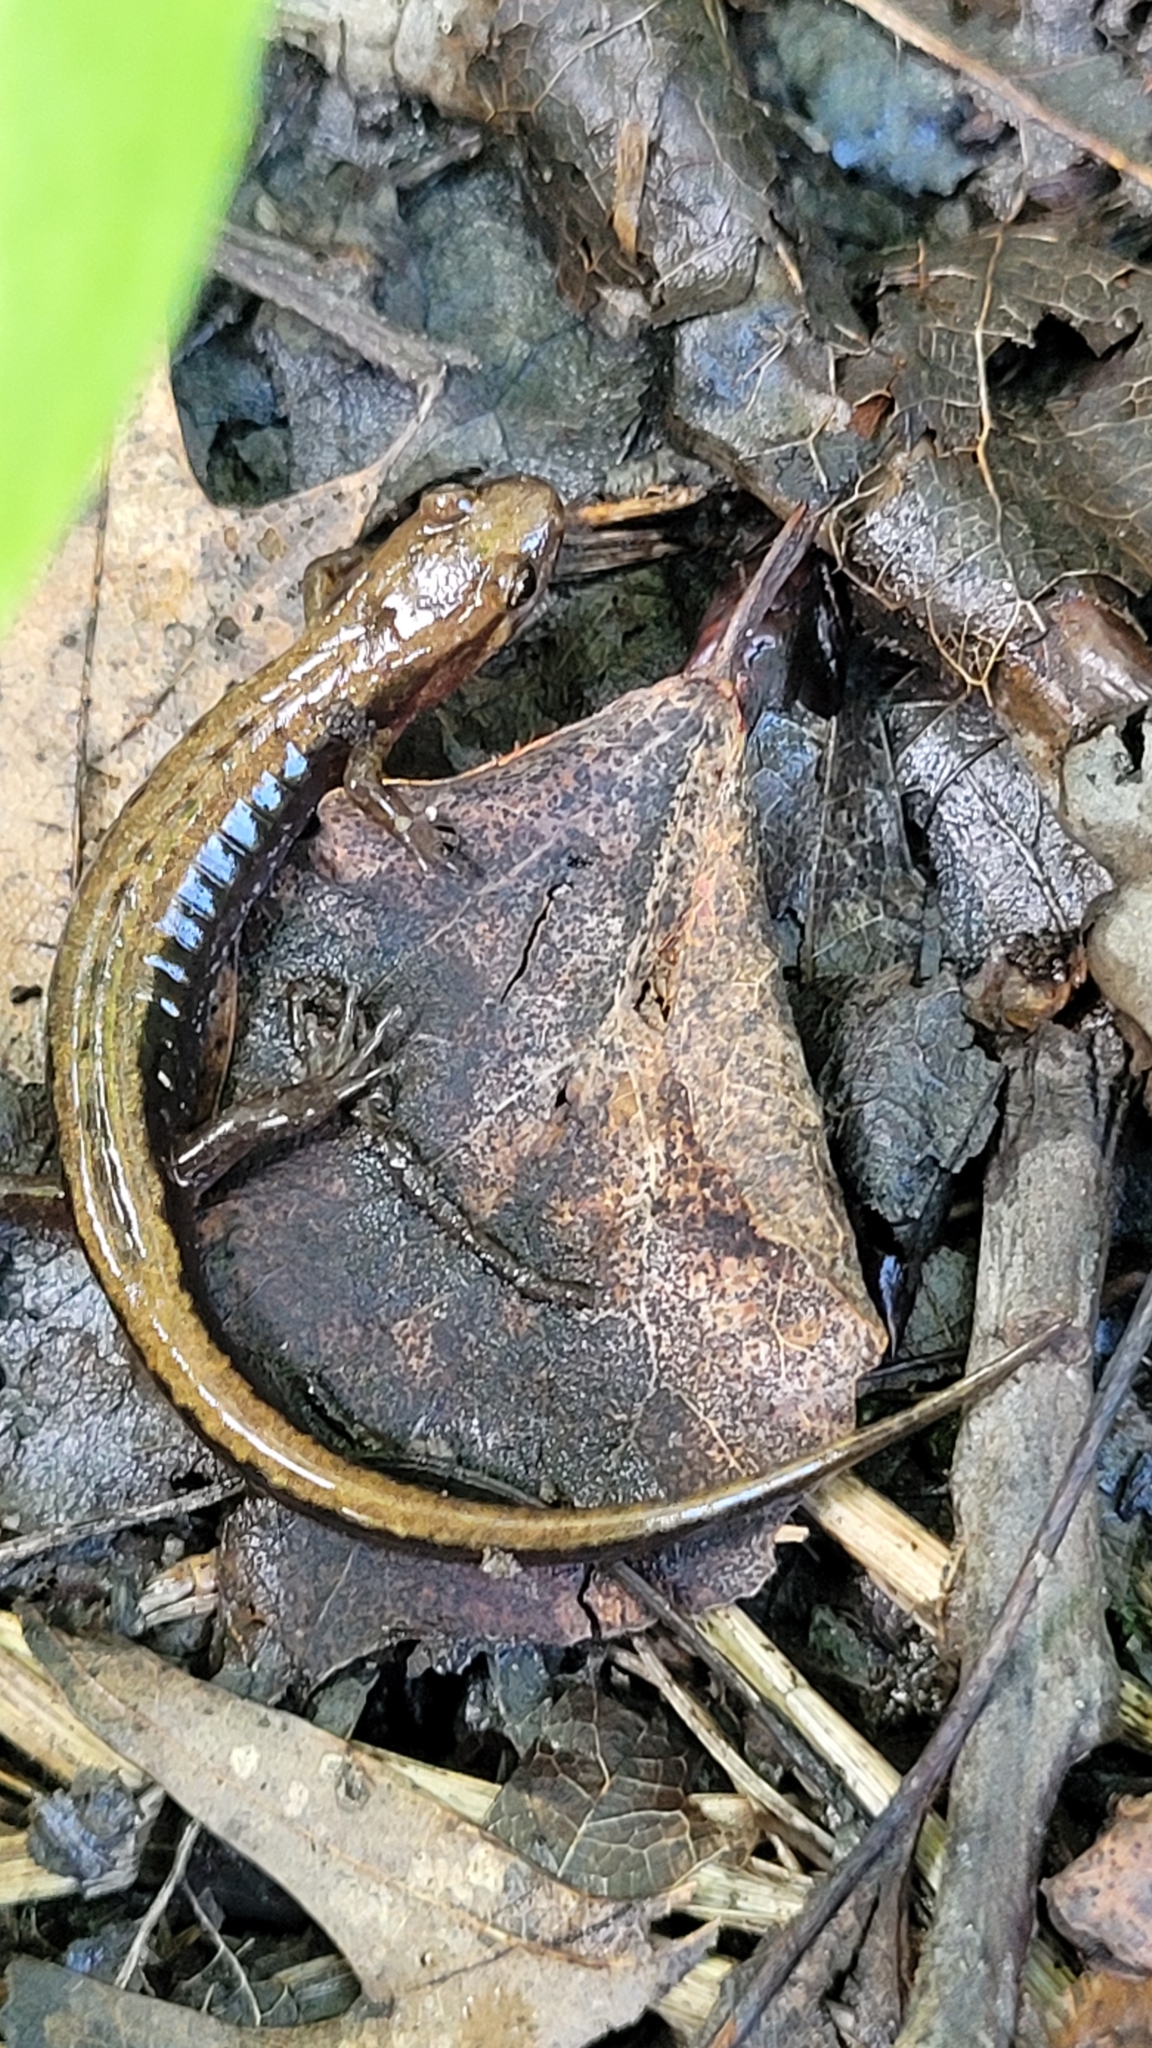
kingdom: Animalia
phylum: Chordata
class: Amphibia
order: Caudata
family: Plethodontidae
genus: Desmognathus
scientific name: Desmognathus ochrophaeus
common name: Allegheny mountain dusky salamander
